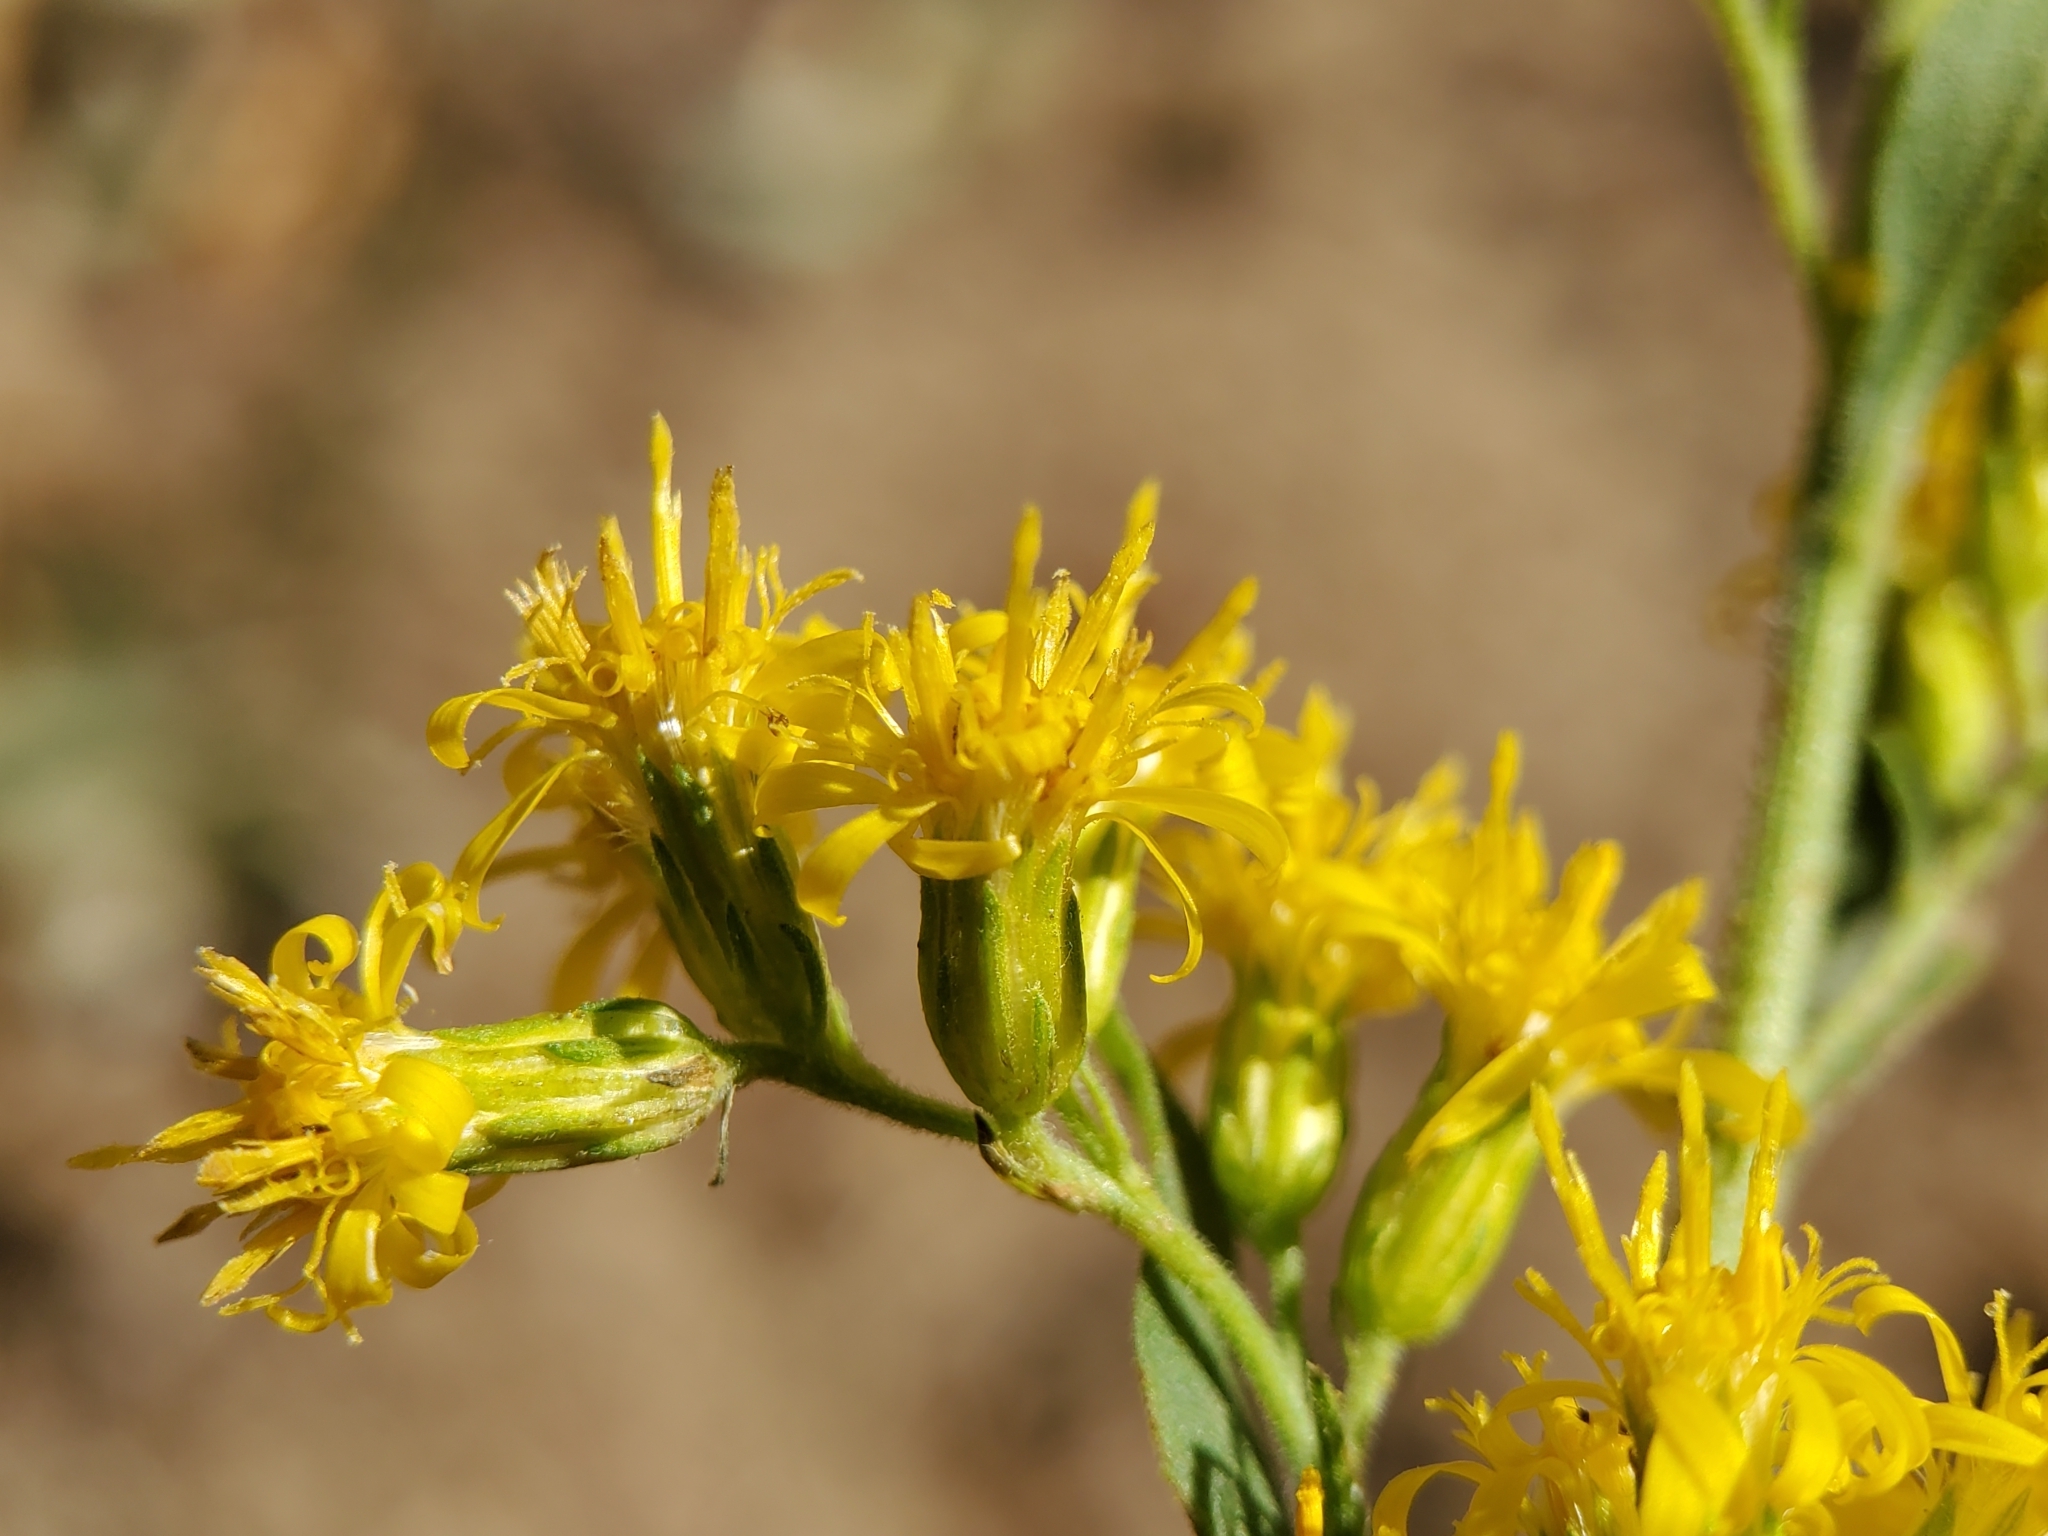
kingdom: Plantae
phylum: Tracheophyta
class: Magnoliopsida
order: Asterales
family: Asteraceae
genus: Solidago
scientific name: Solidago californica
